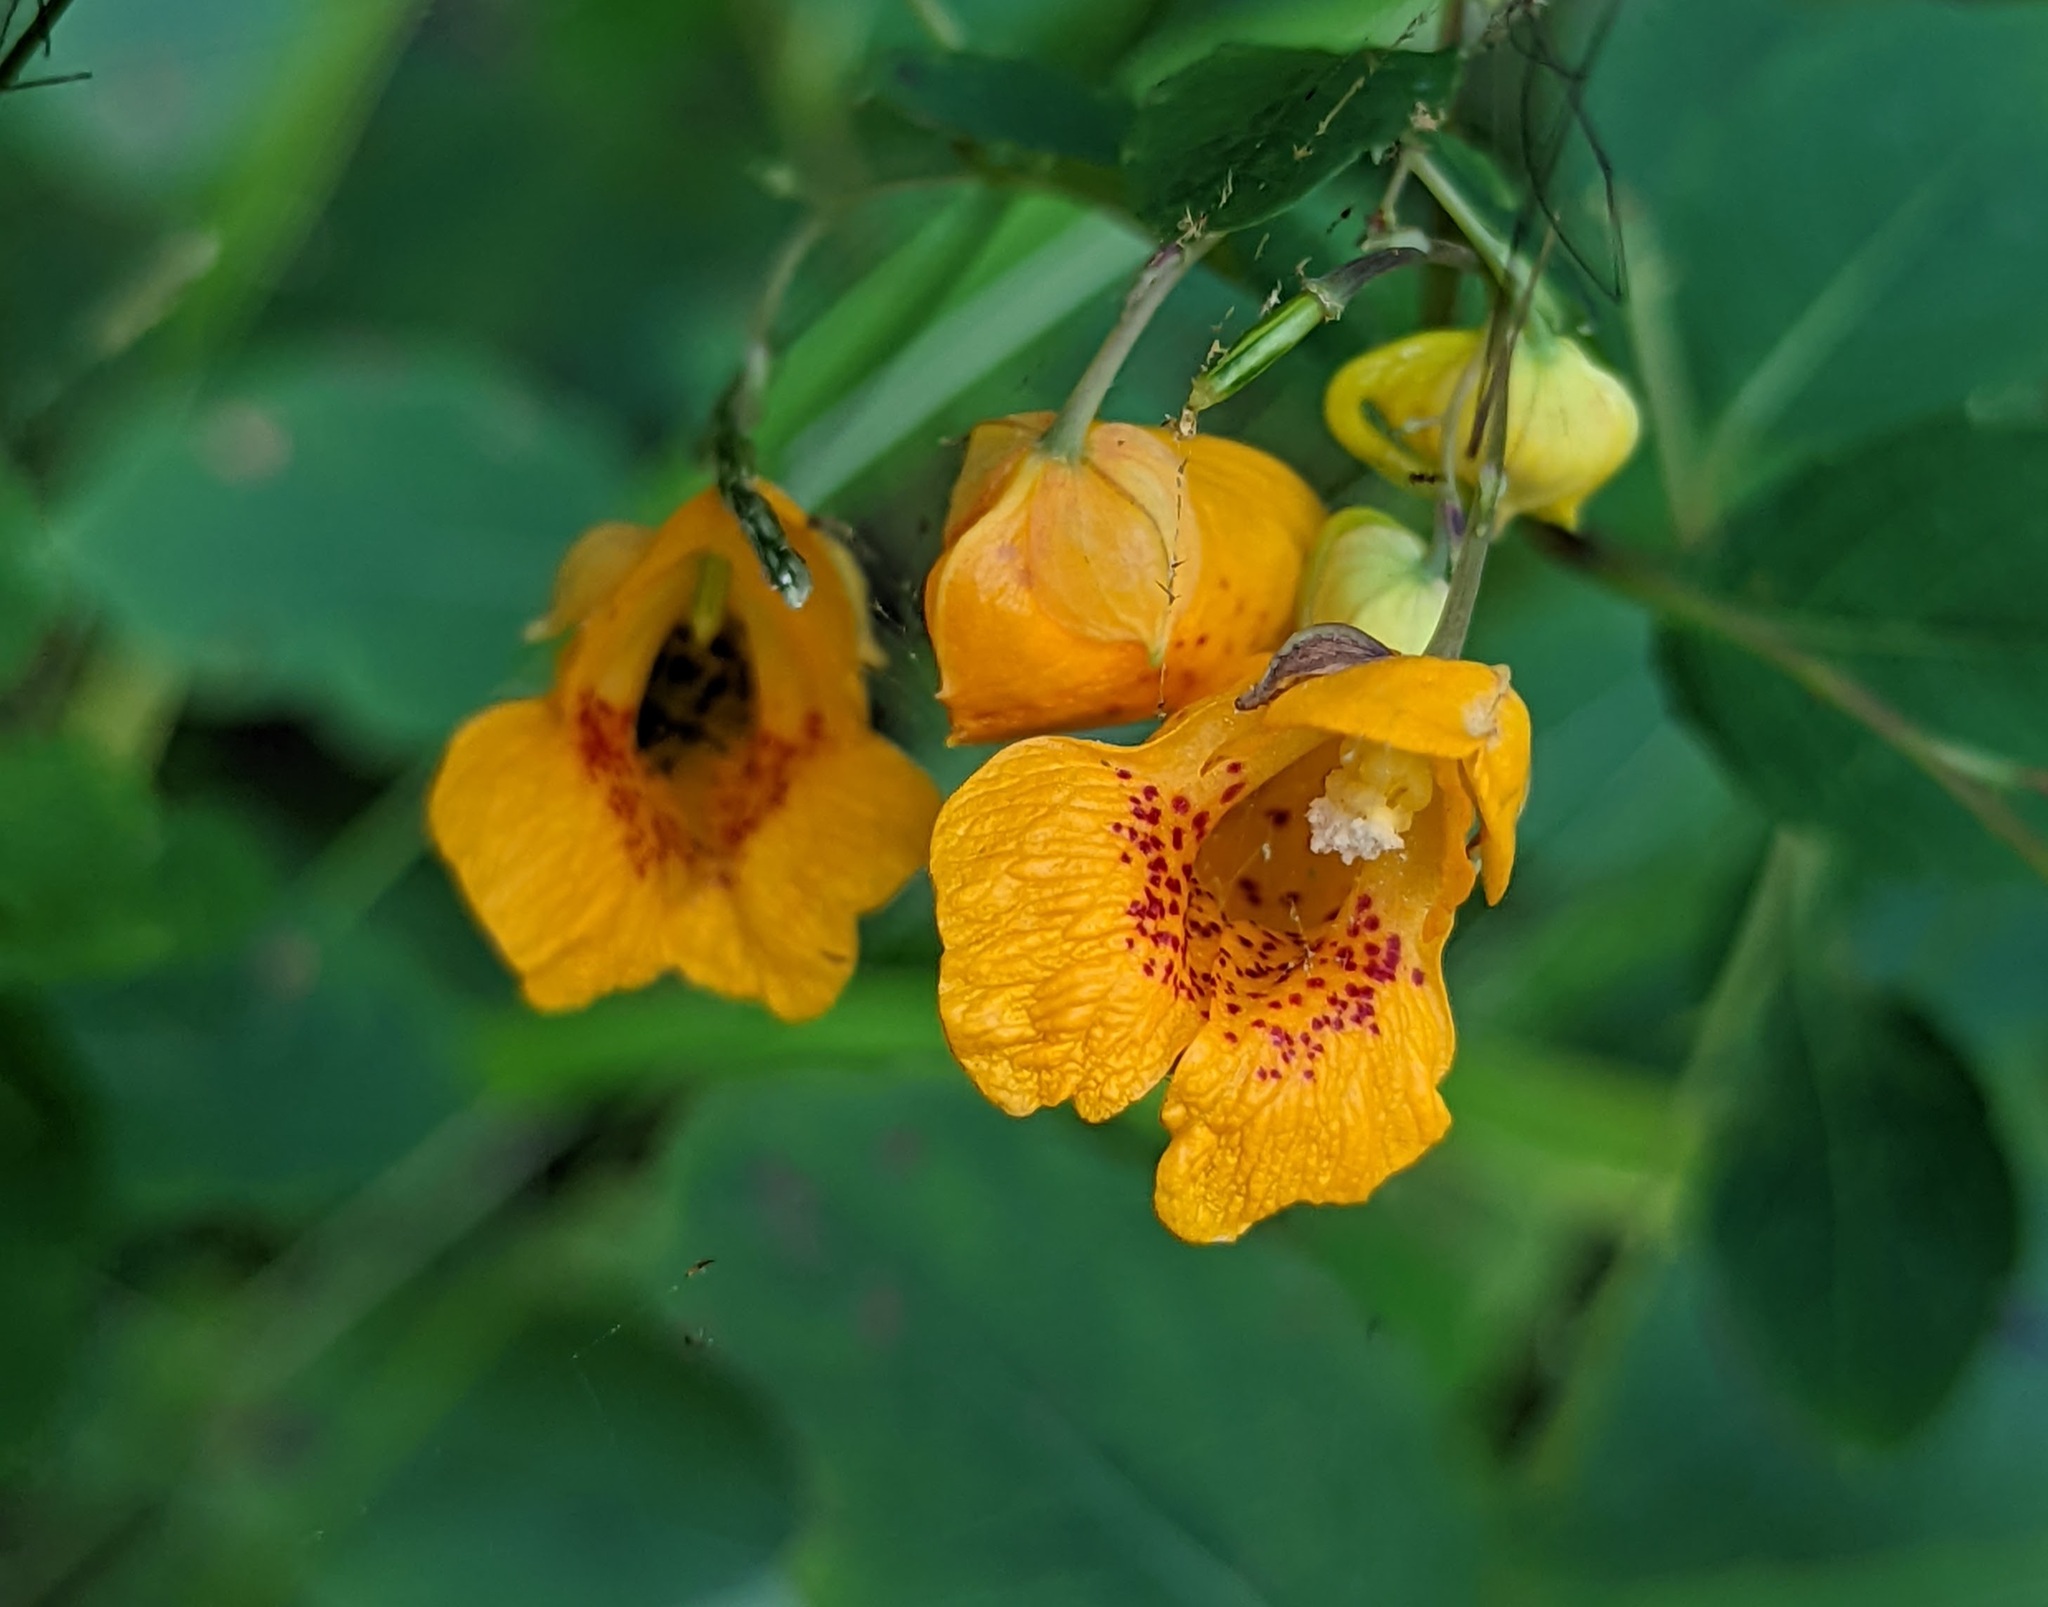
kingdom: Plantae
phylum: Tracheophyta
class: Magnoliopsida
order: Ericales
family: Balsaminaceae
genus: Impatiens
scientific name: Impatiens capensis
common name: Orange balsam
